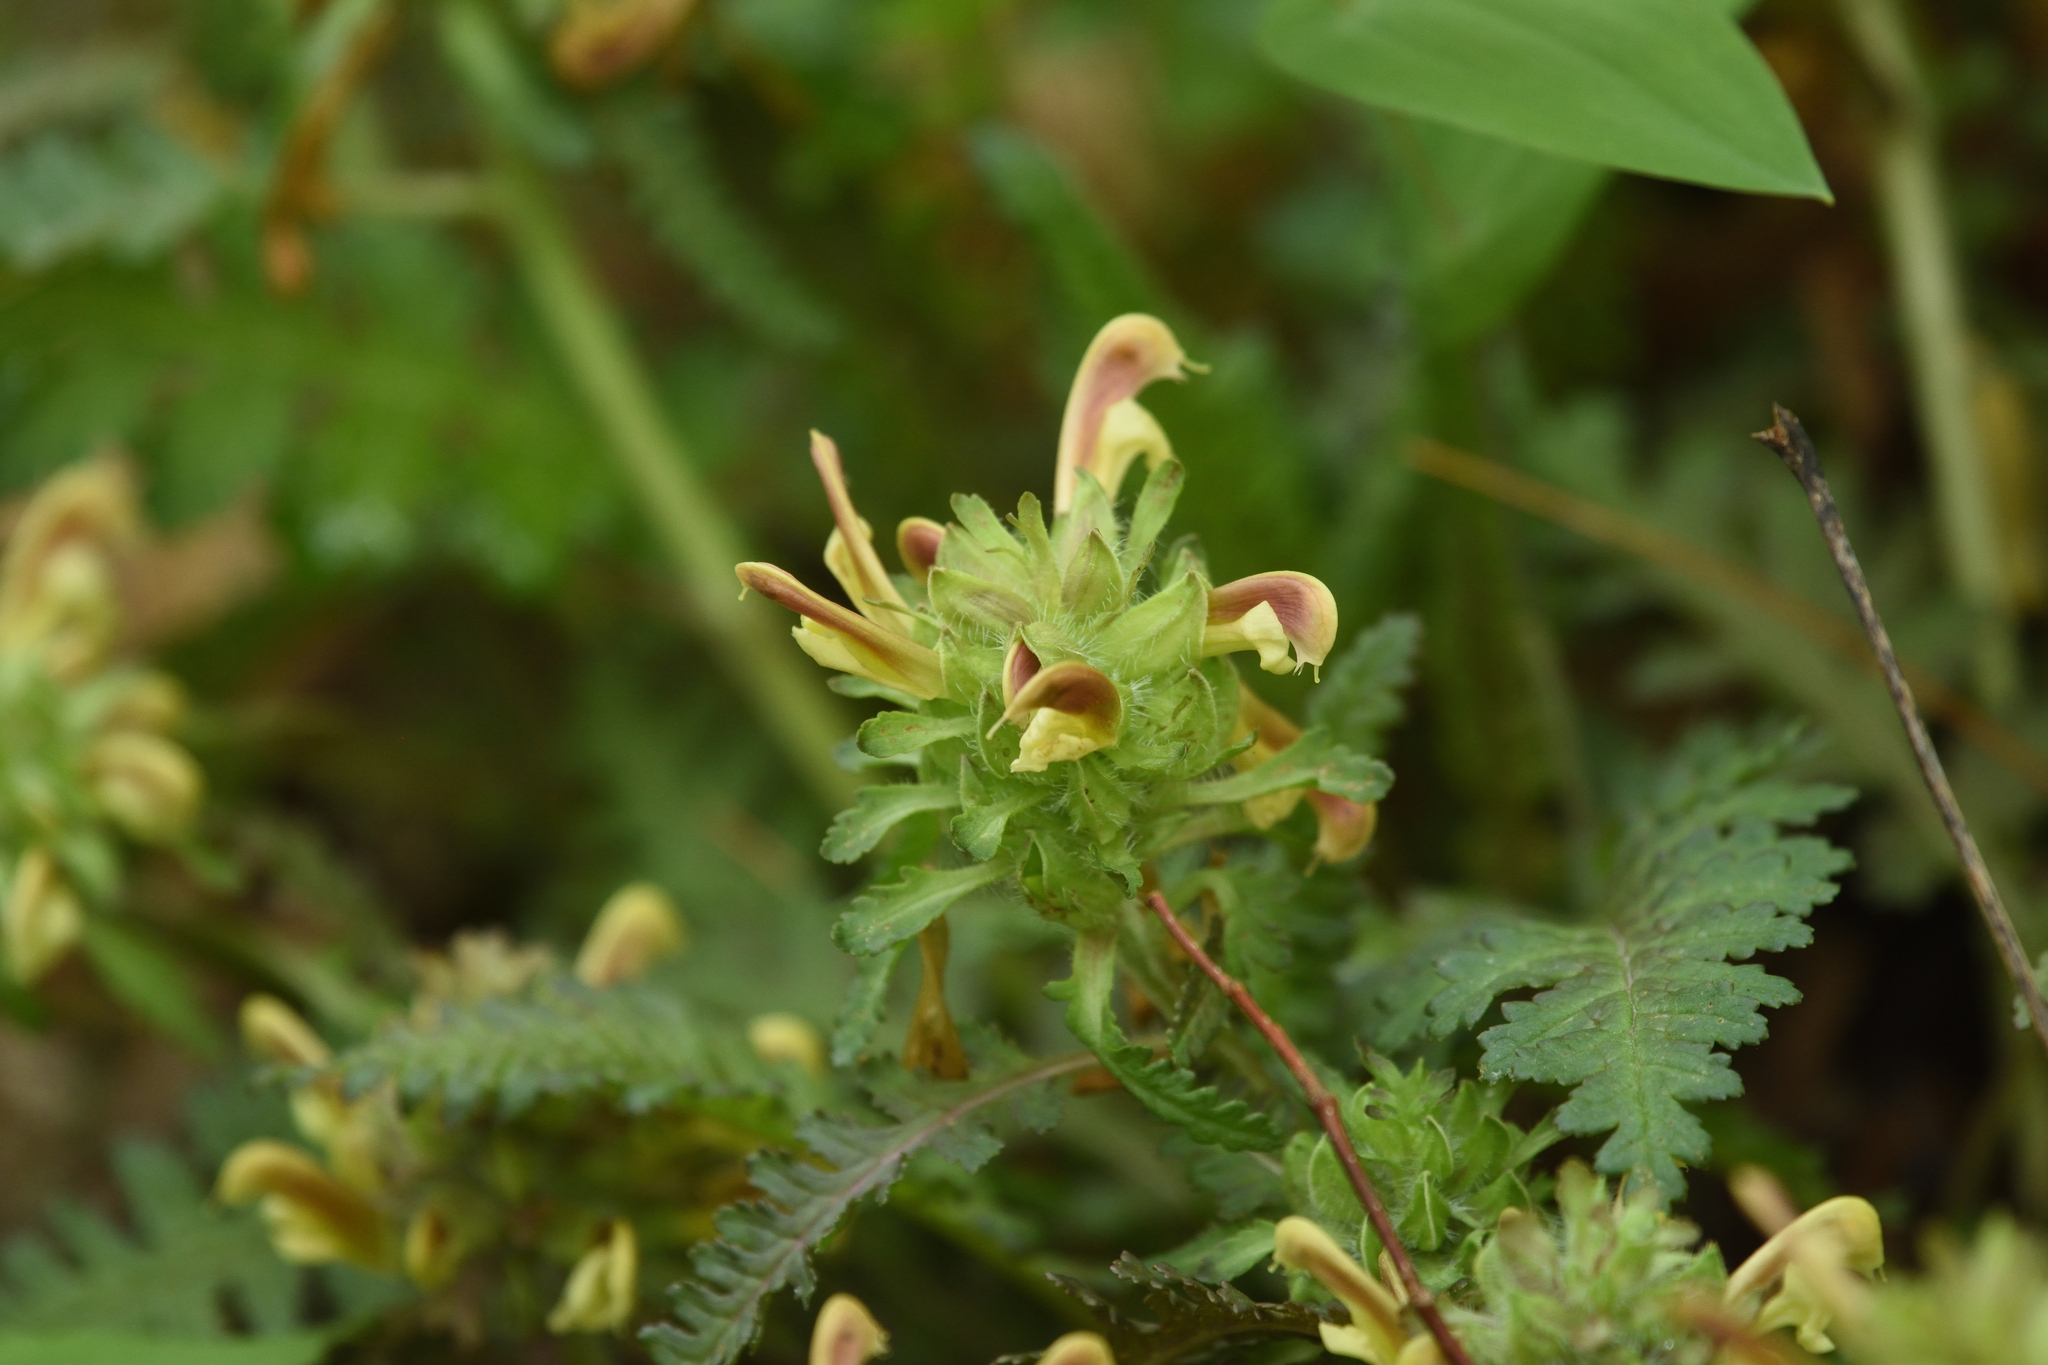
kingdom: Plantae
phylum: Tracheophyta
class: Magnoliopsida
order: Lamiales
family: Orobanchaceae
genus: Pedicularis
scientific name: Pedicularis canadensis
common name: Early lousewort
